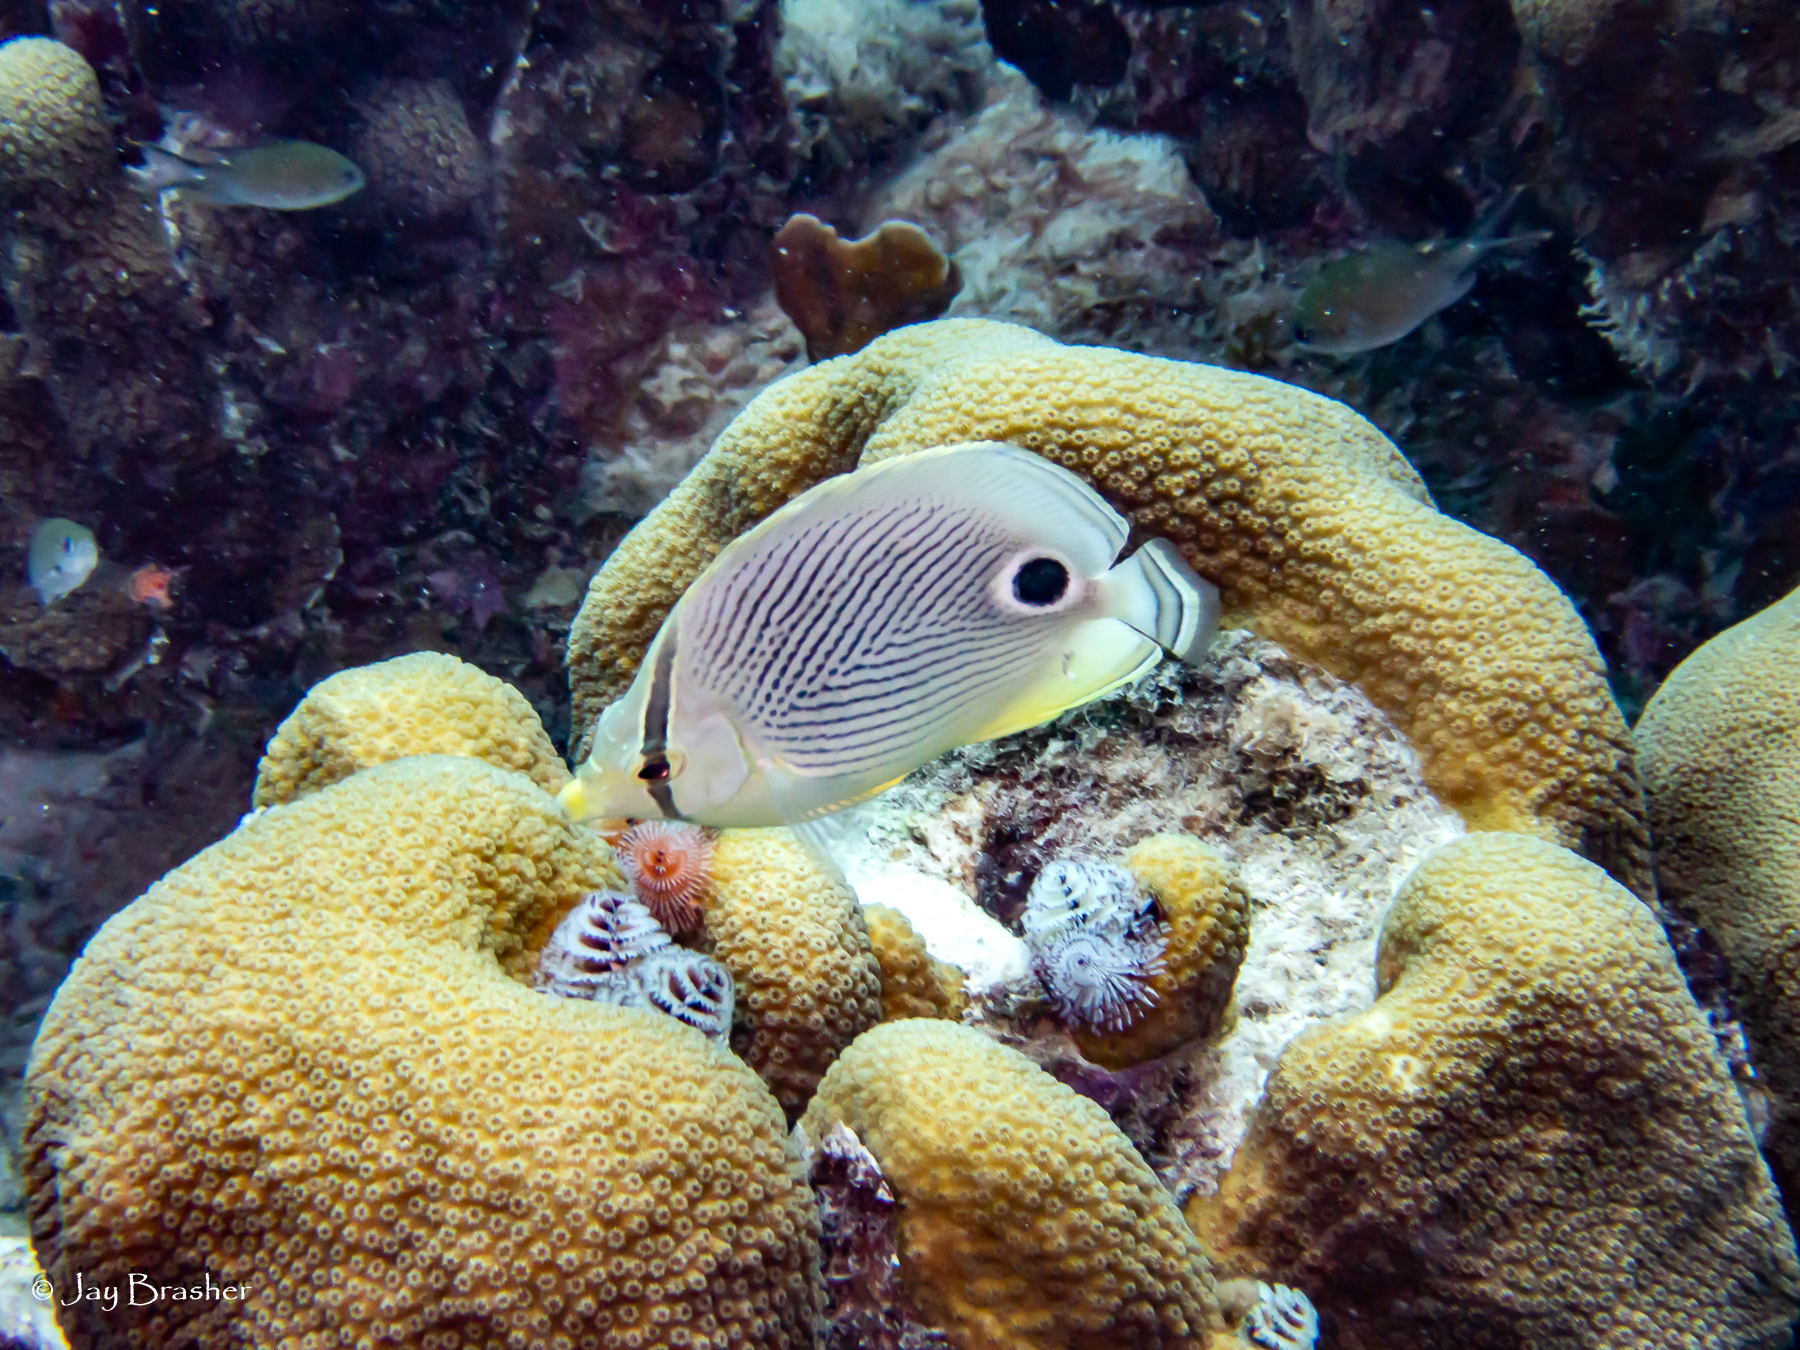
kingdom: Animalia
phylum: Annelida
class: Polychaeta
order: Sabellida
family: Serpulidae
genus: Spirobranchus
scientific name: Spirobranchus giganteus
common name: Christmas tree worm
